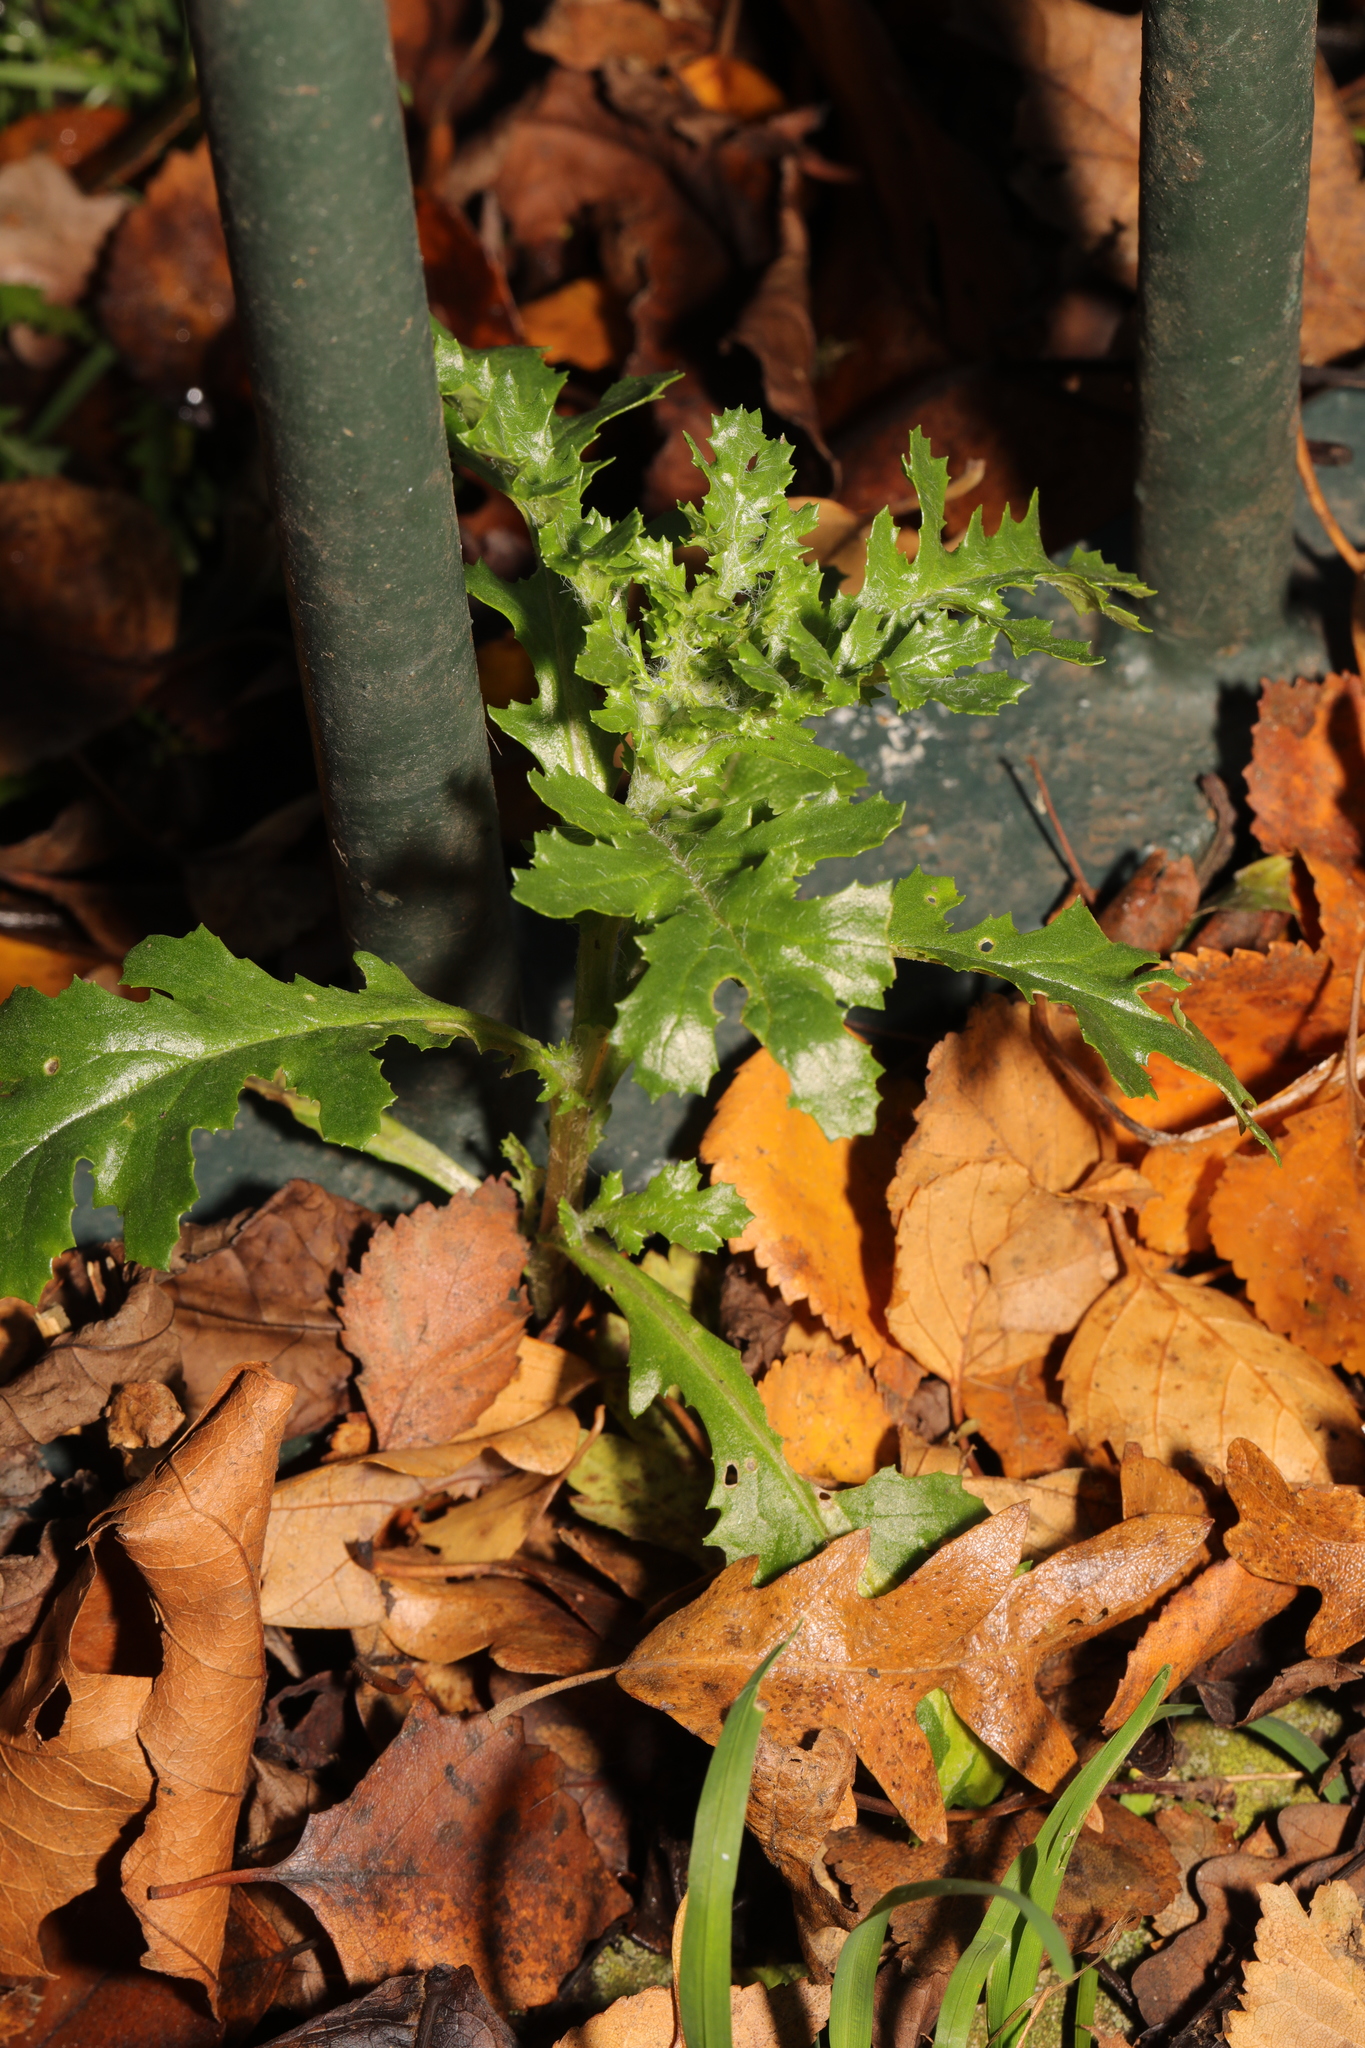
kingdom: Plantae
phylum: Tracheophyta
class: Magnoliopsida
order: Asterales
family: Asteraceae
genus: Senecio
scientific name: Senecio vulgaris
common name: Old-man-in-the-spring
